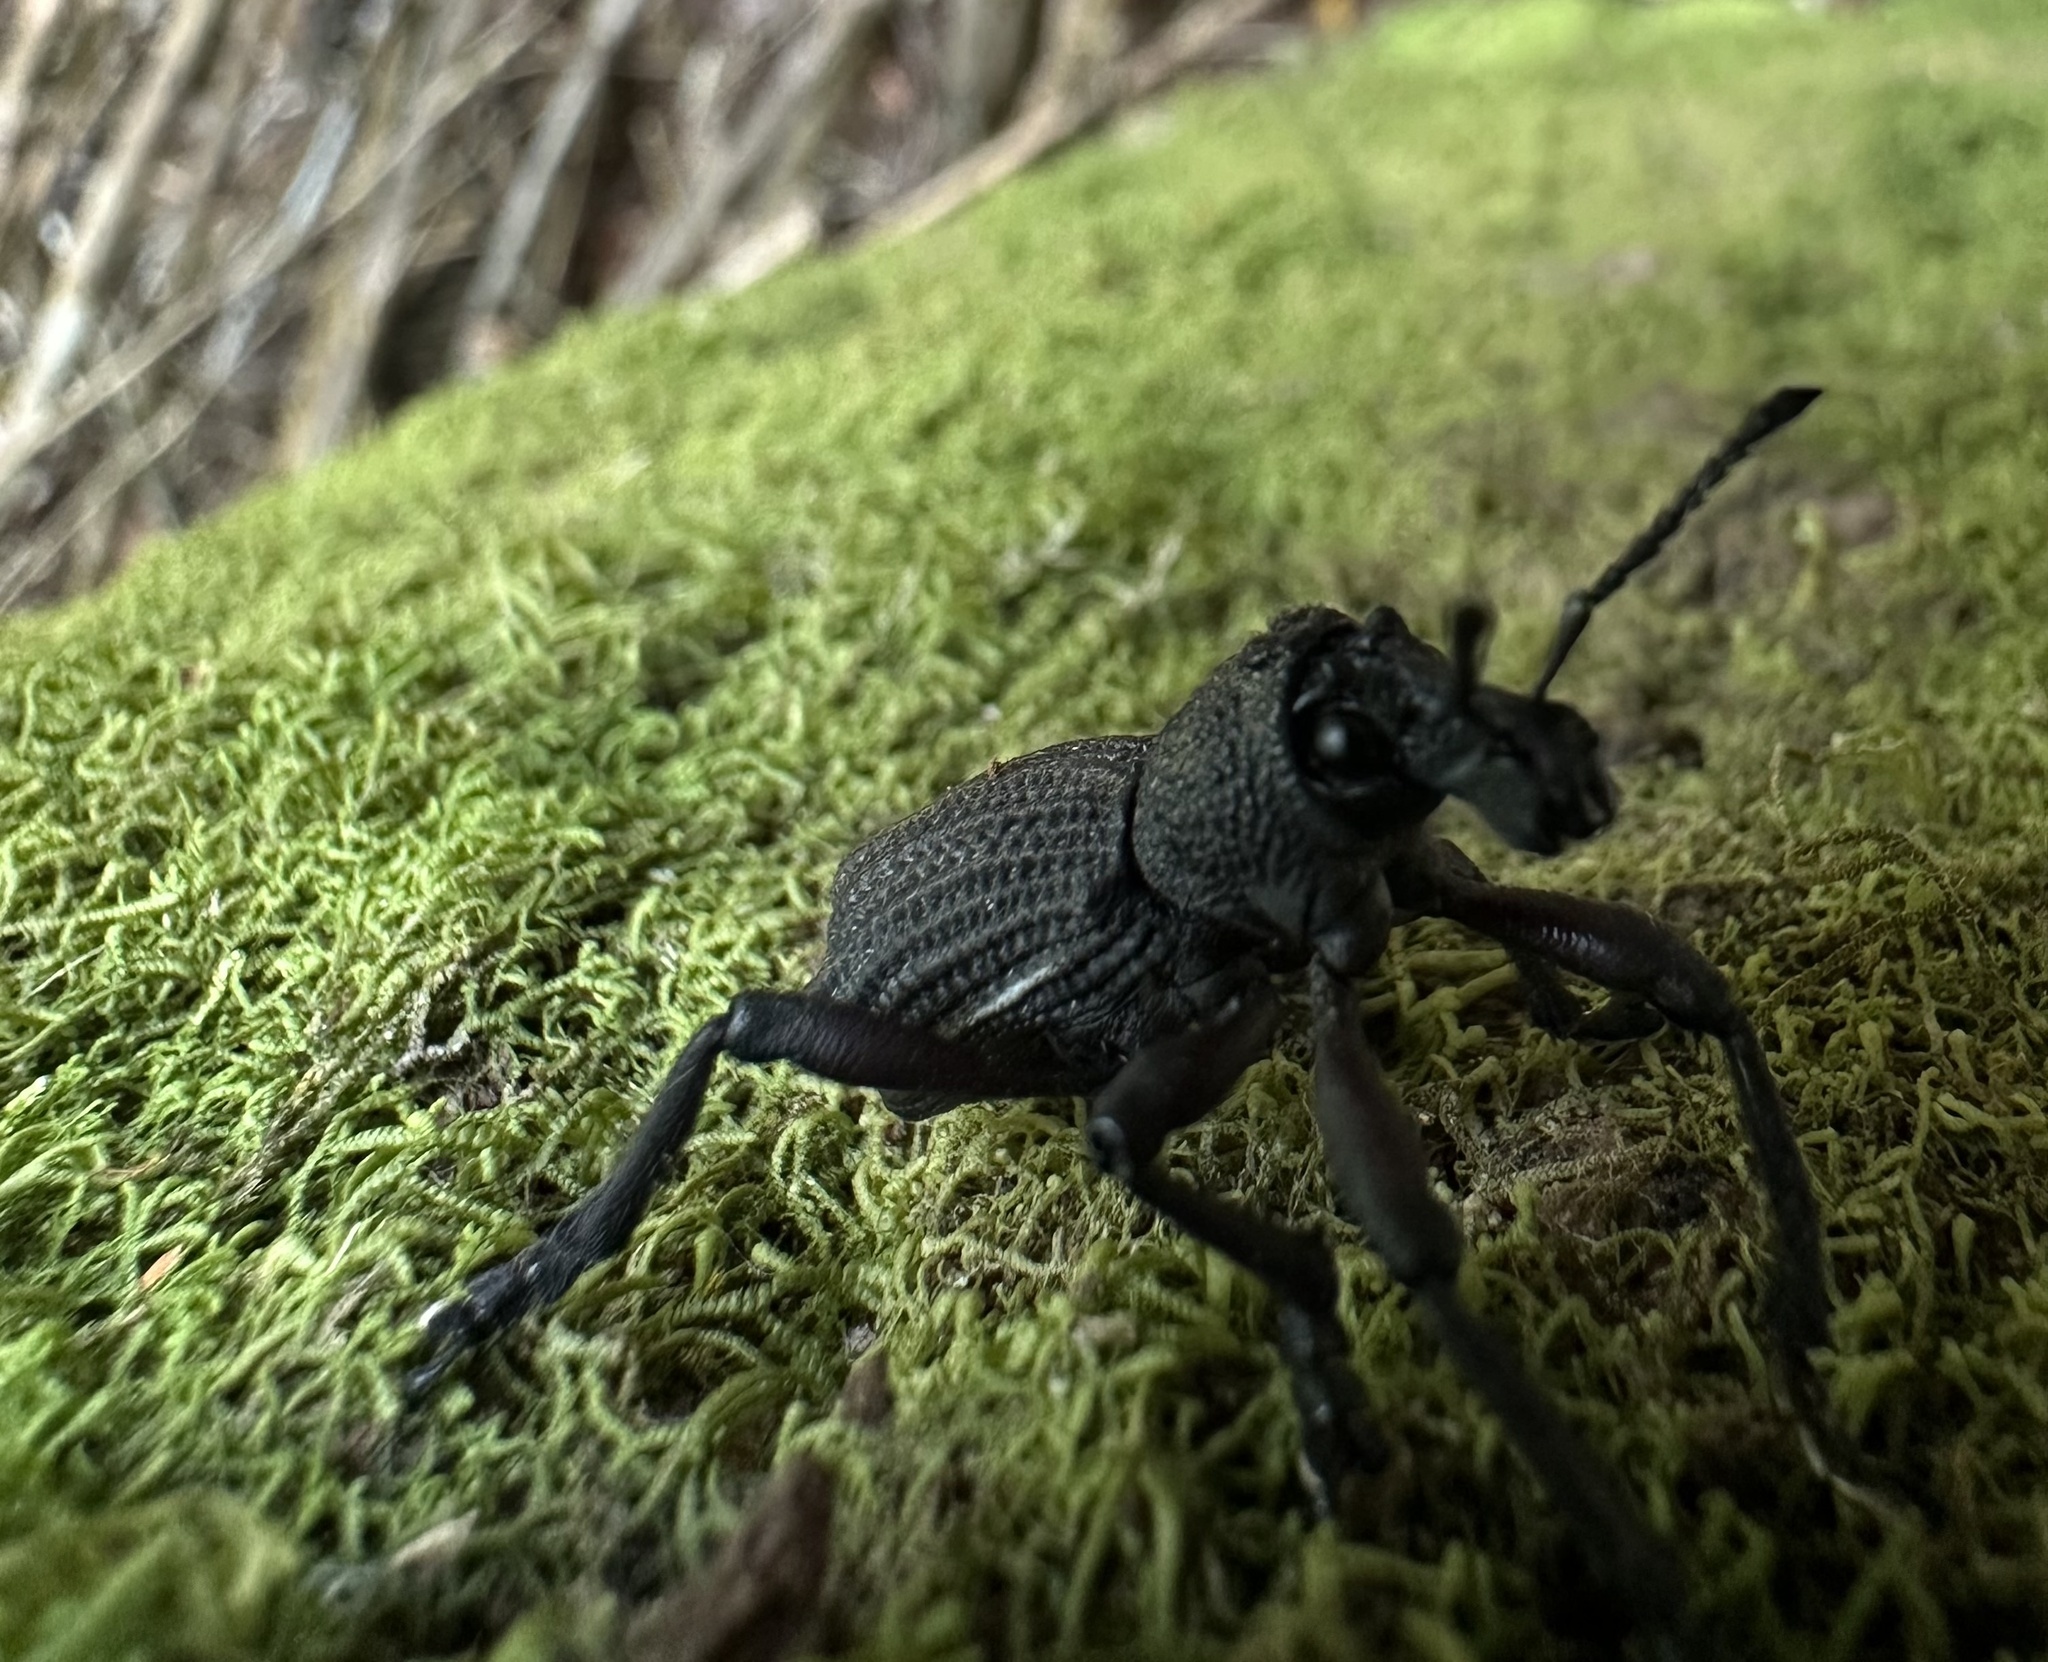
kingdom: Animalia
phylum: Arthropoda
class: Insecta
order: Coleoptera
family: Curculionidae
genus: Aegorhinus
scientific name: Aegorhinus
